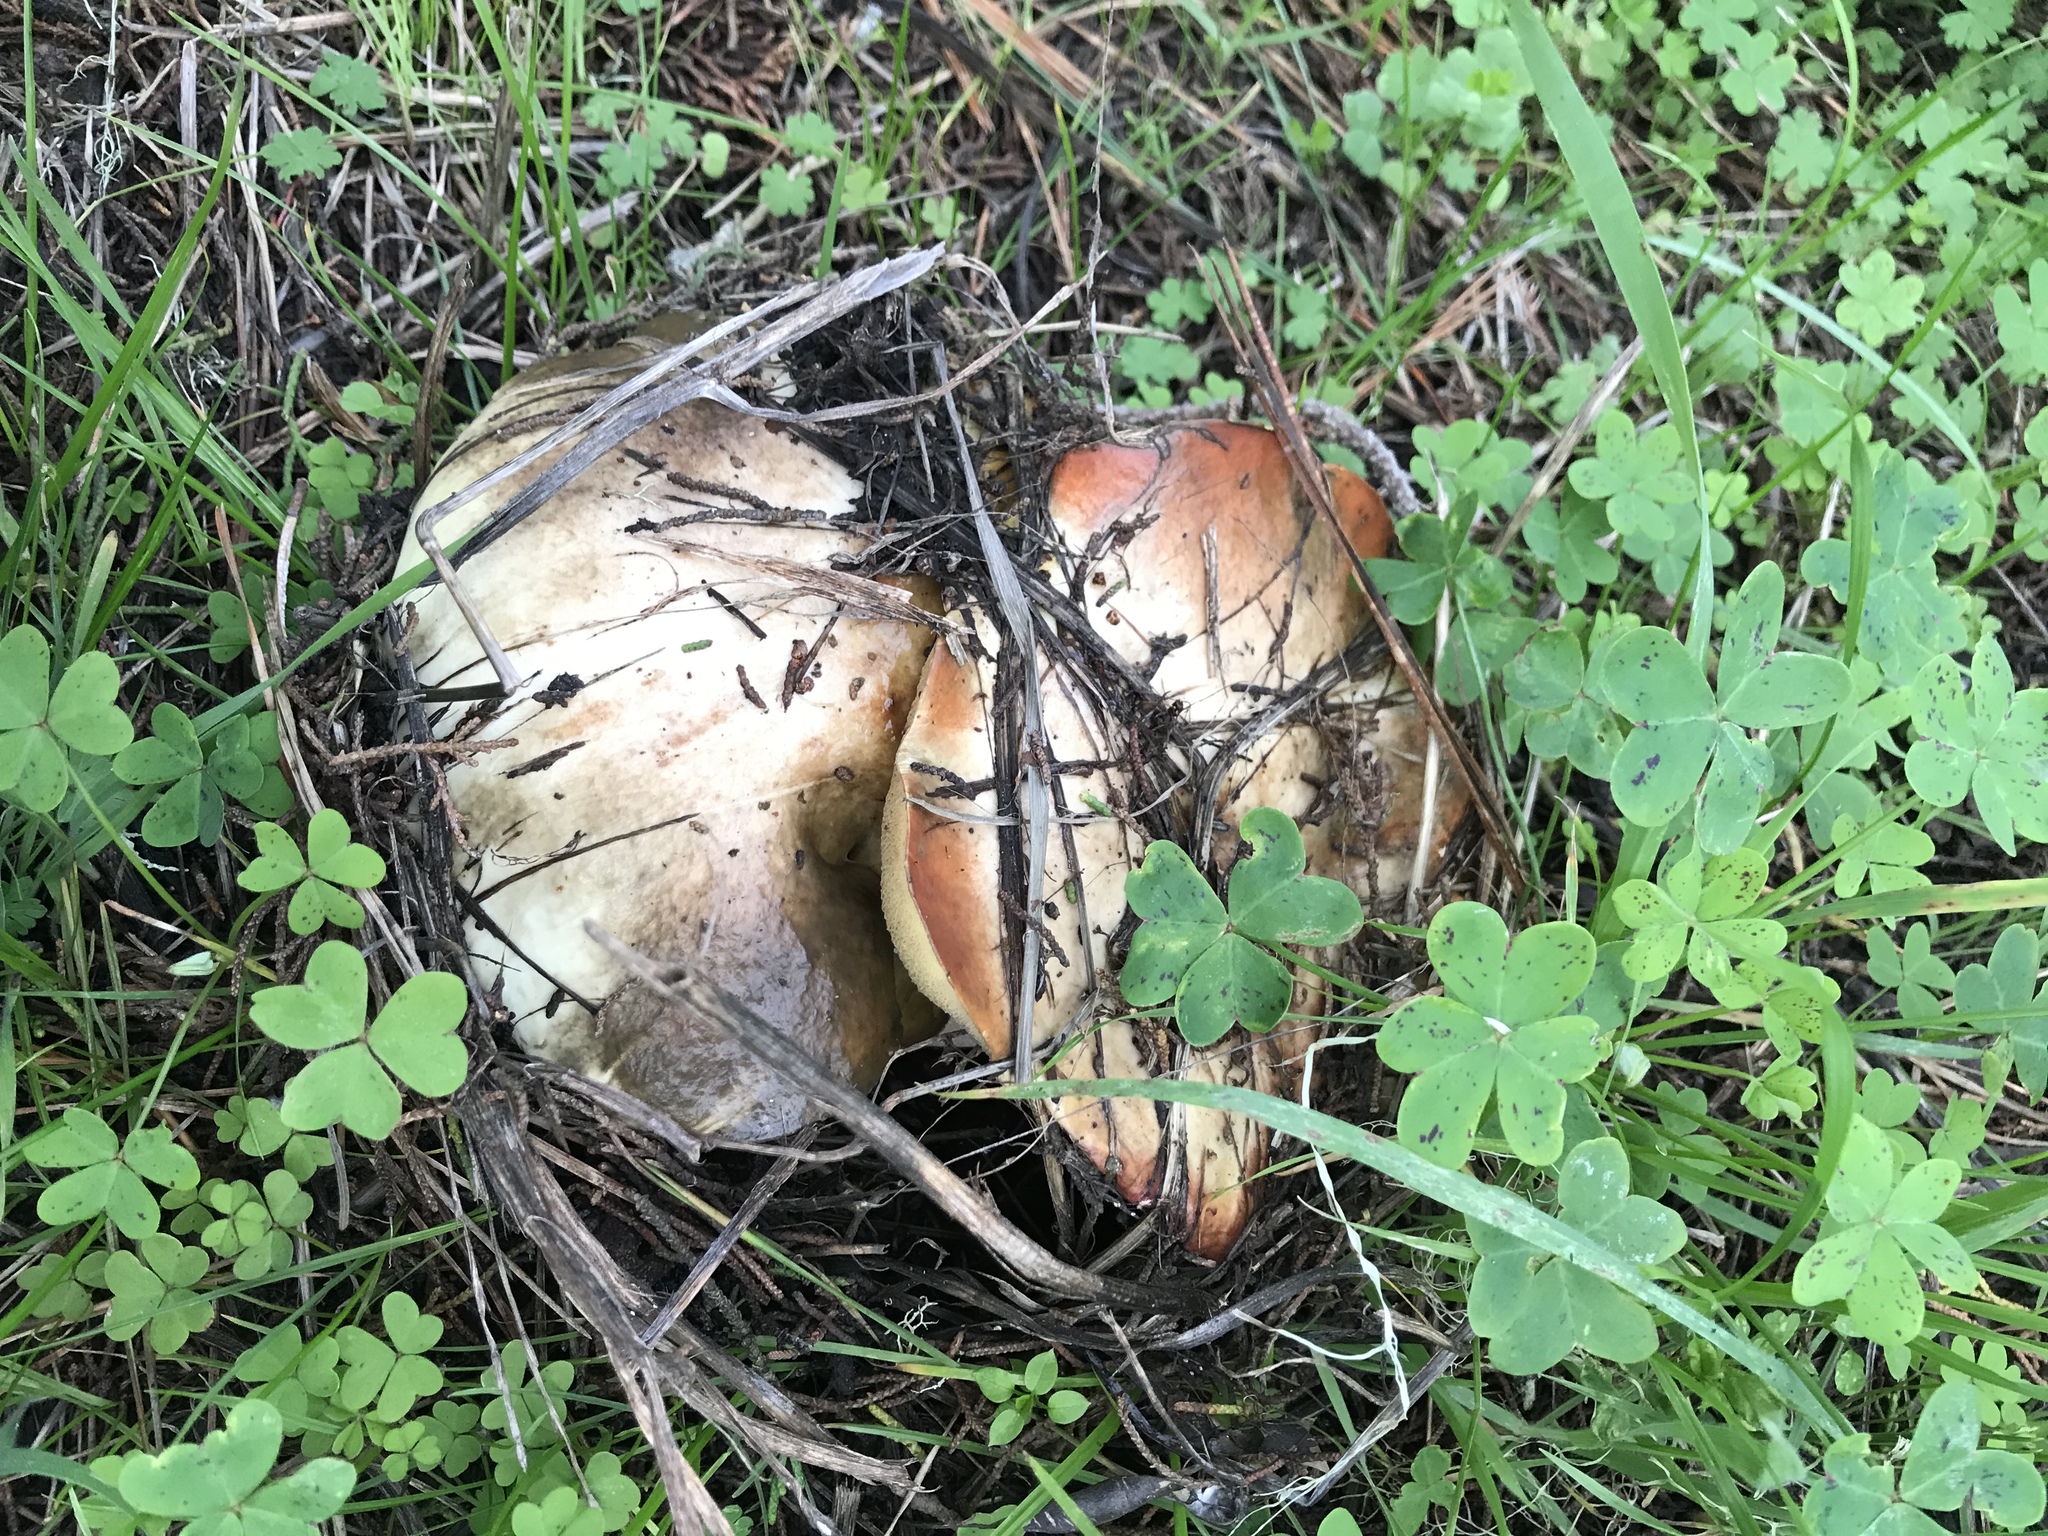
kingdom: Fungi
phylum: Basidiomycota
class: Agaricomycetes
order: Boletales
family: Suillaceae
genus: Suillus
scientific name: Suillus pungens
